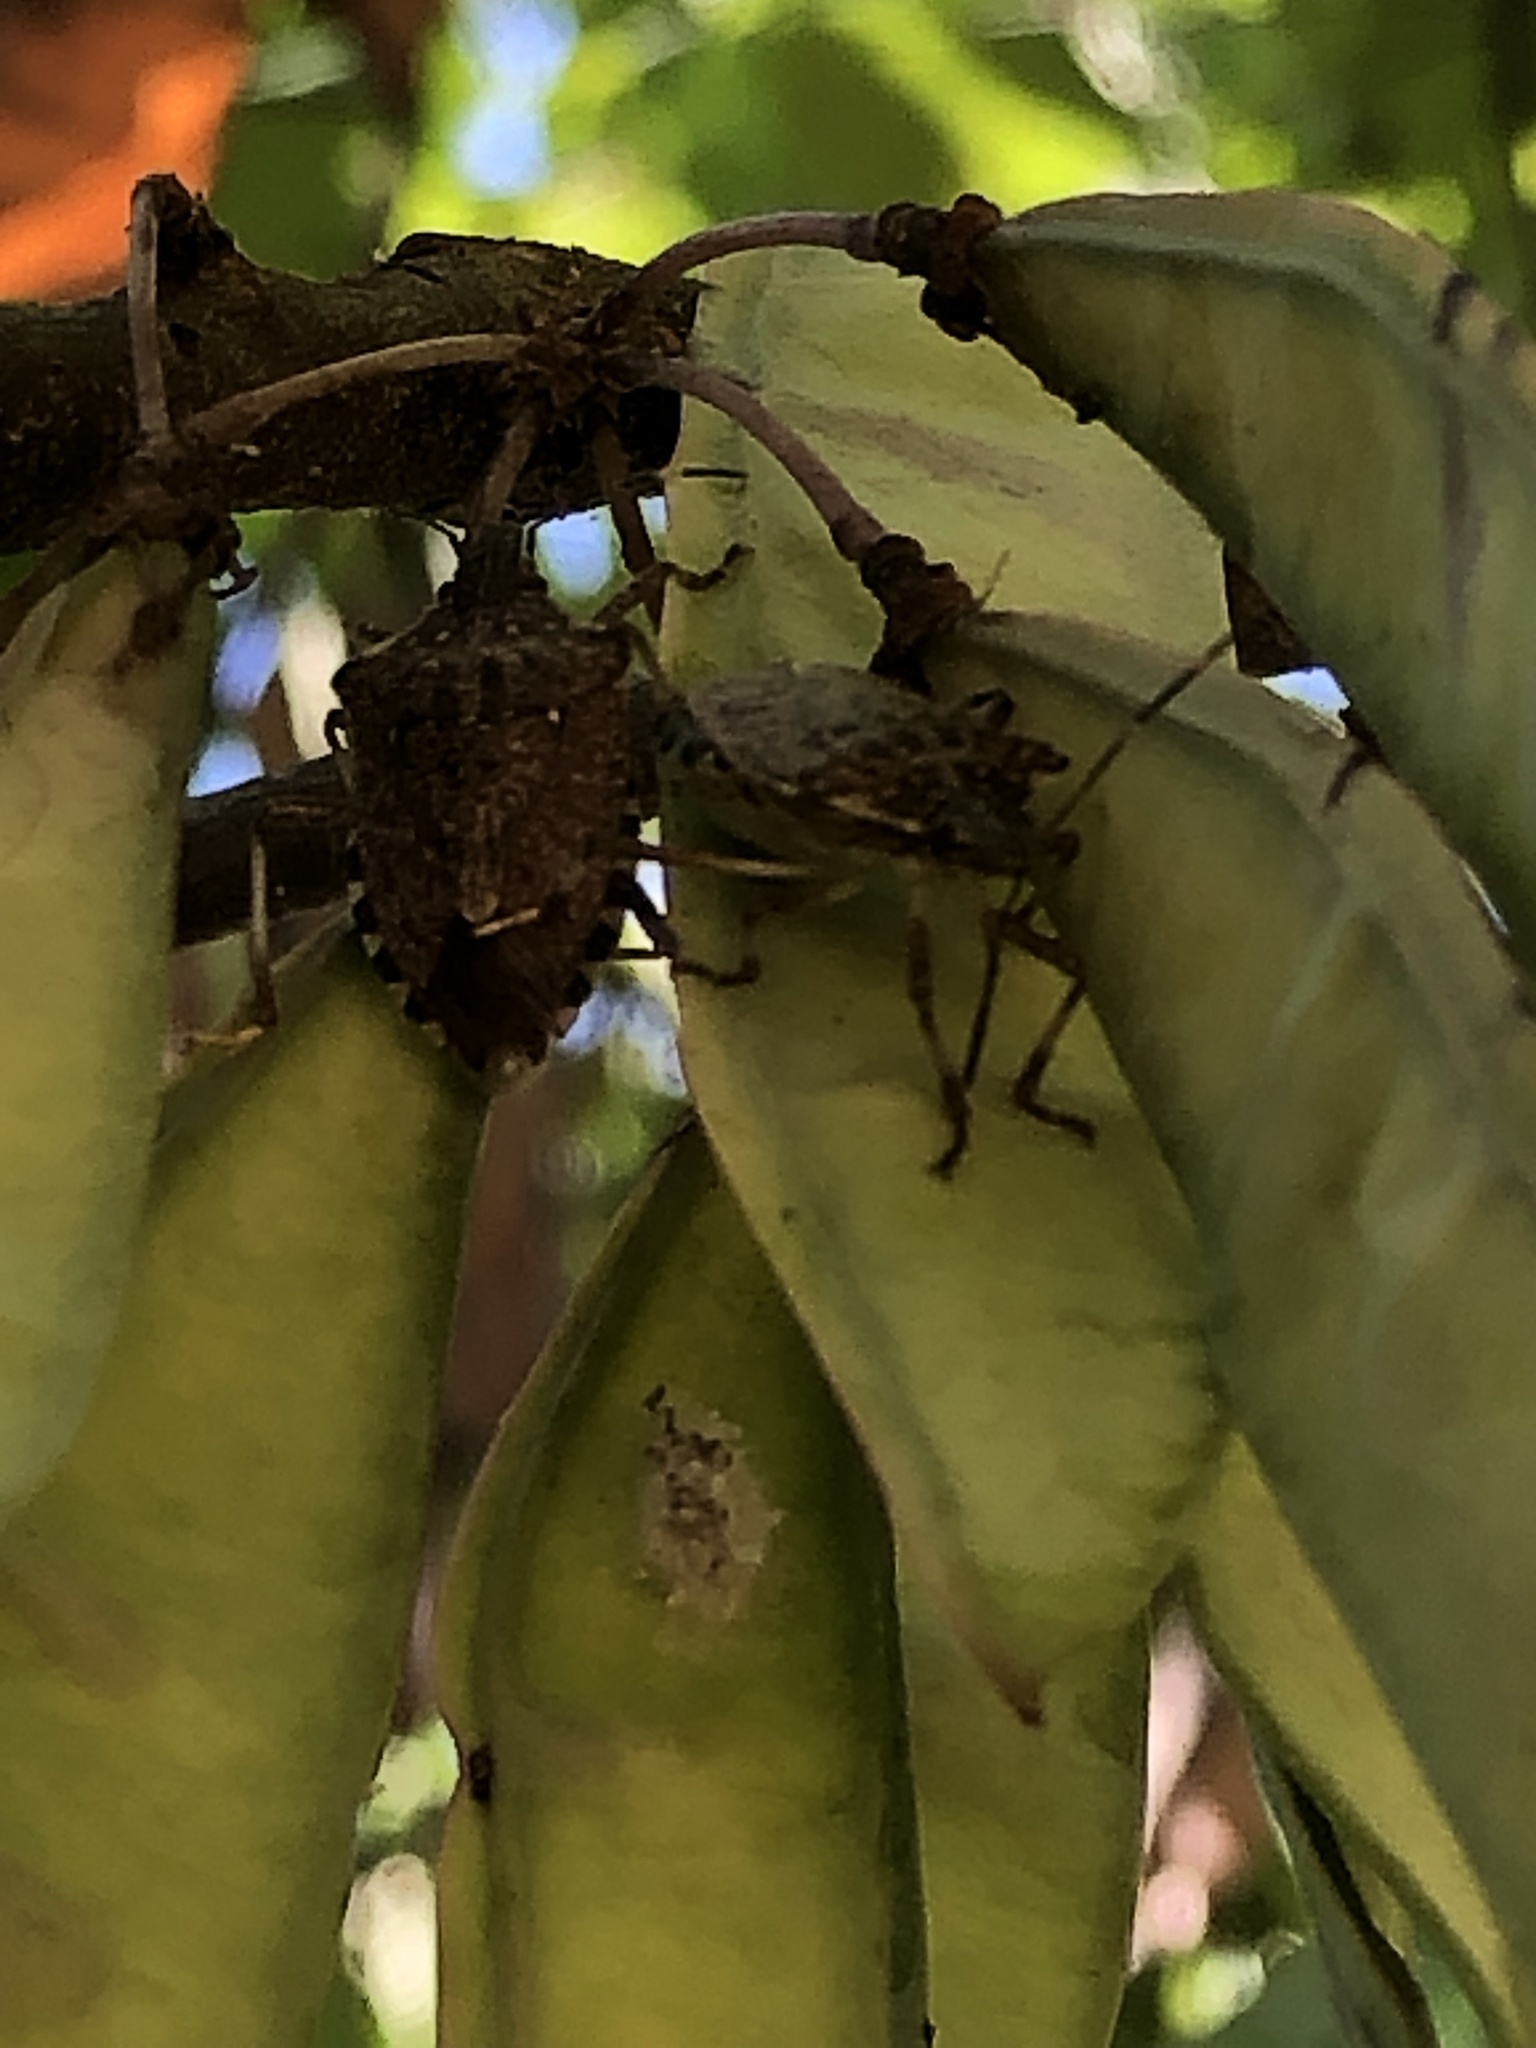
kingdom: Animalia
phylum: Arthropoda
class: Insecta
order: Hemiptera
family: Pentatomidae
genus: Halyomorpha
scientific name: Halyomorpha halys
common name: Brown marmorated stink bug
